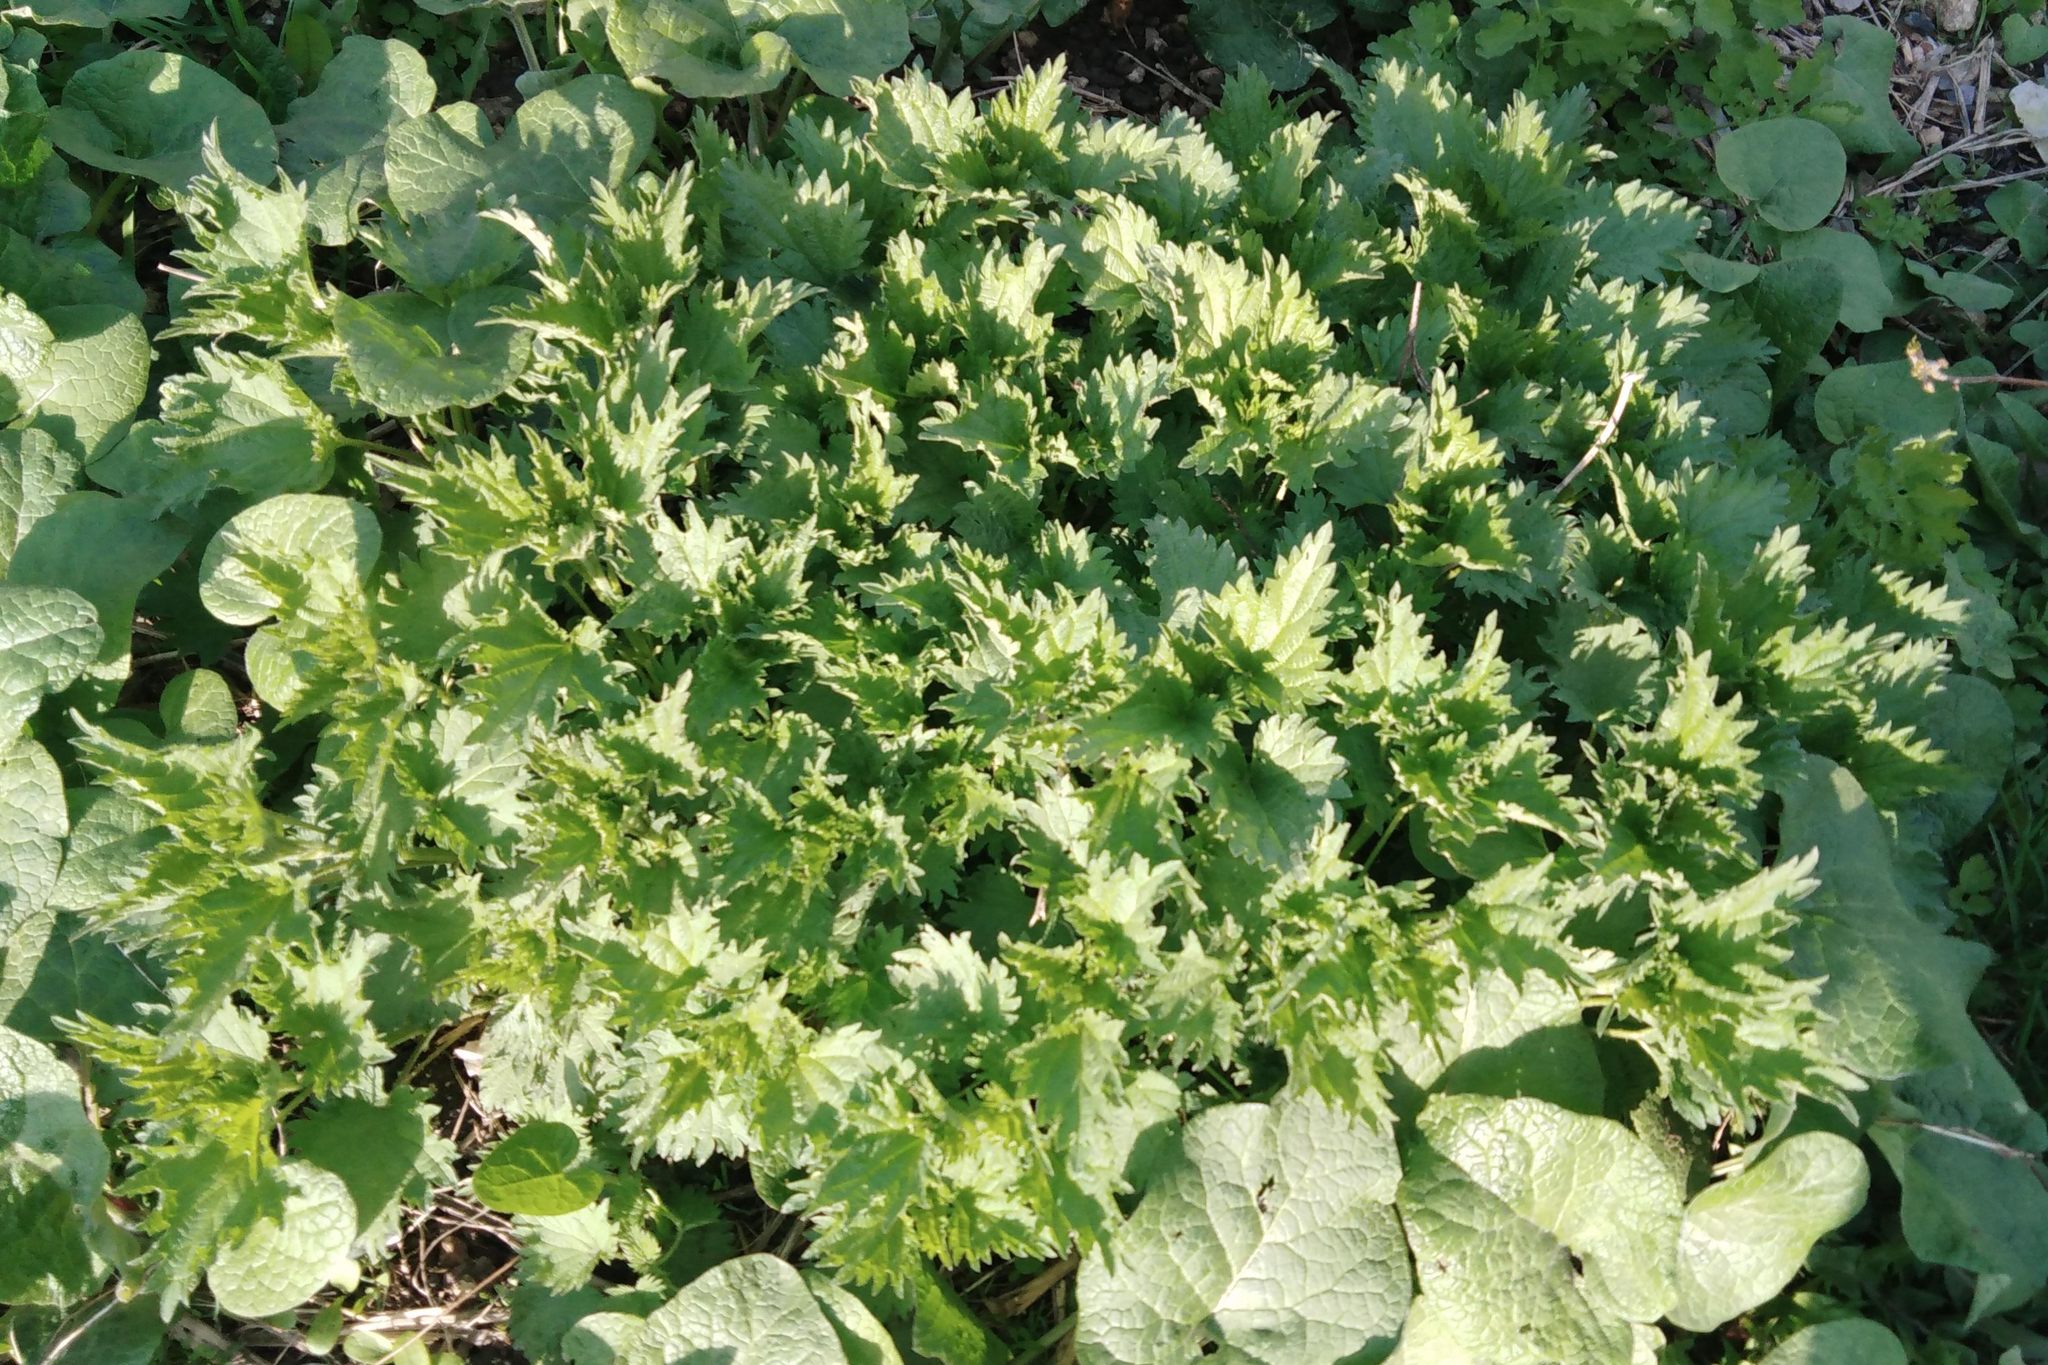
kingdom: Plantae
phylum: Tracheophyta
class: Magnoliopsida
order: Rosales
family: Urticaceae
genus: Urtica
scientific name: Urtica dioica
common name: Common nettle
